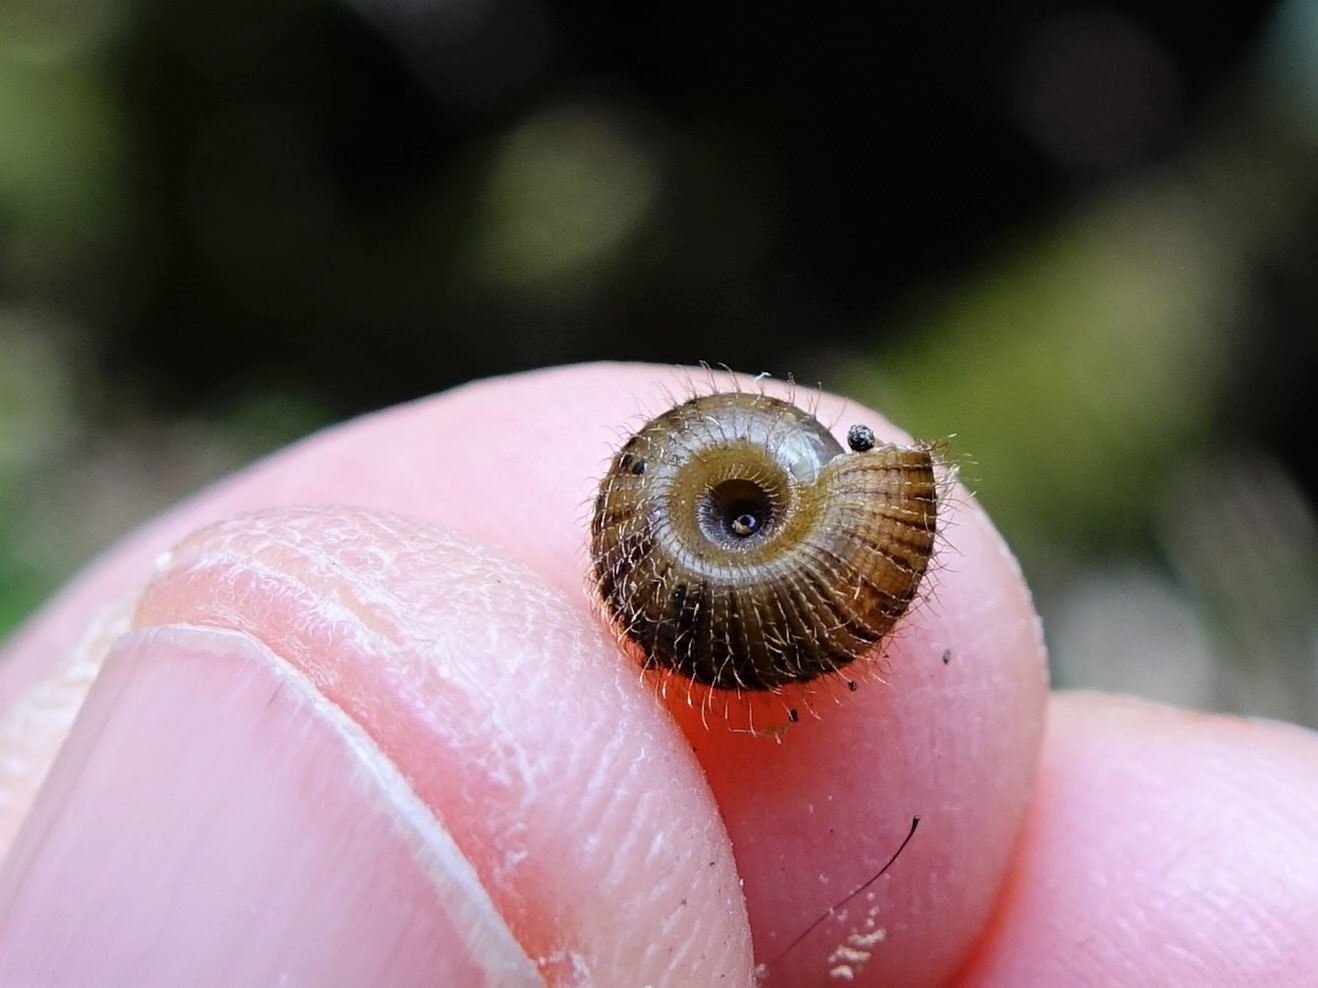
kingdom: Animalia
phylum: Mollusca
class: Gastropoda
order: Stylommatophora
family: Charopidae
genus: Suteria
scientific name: Suteria ide
